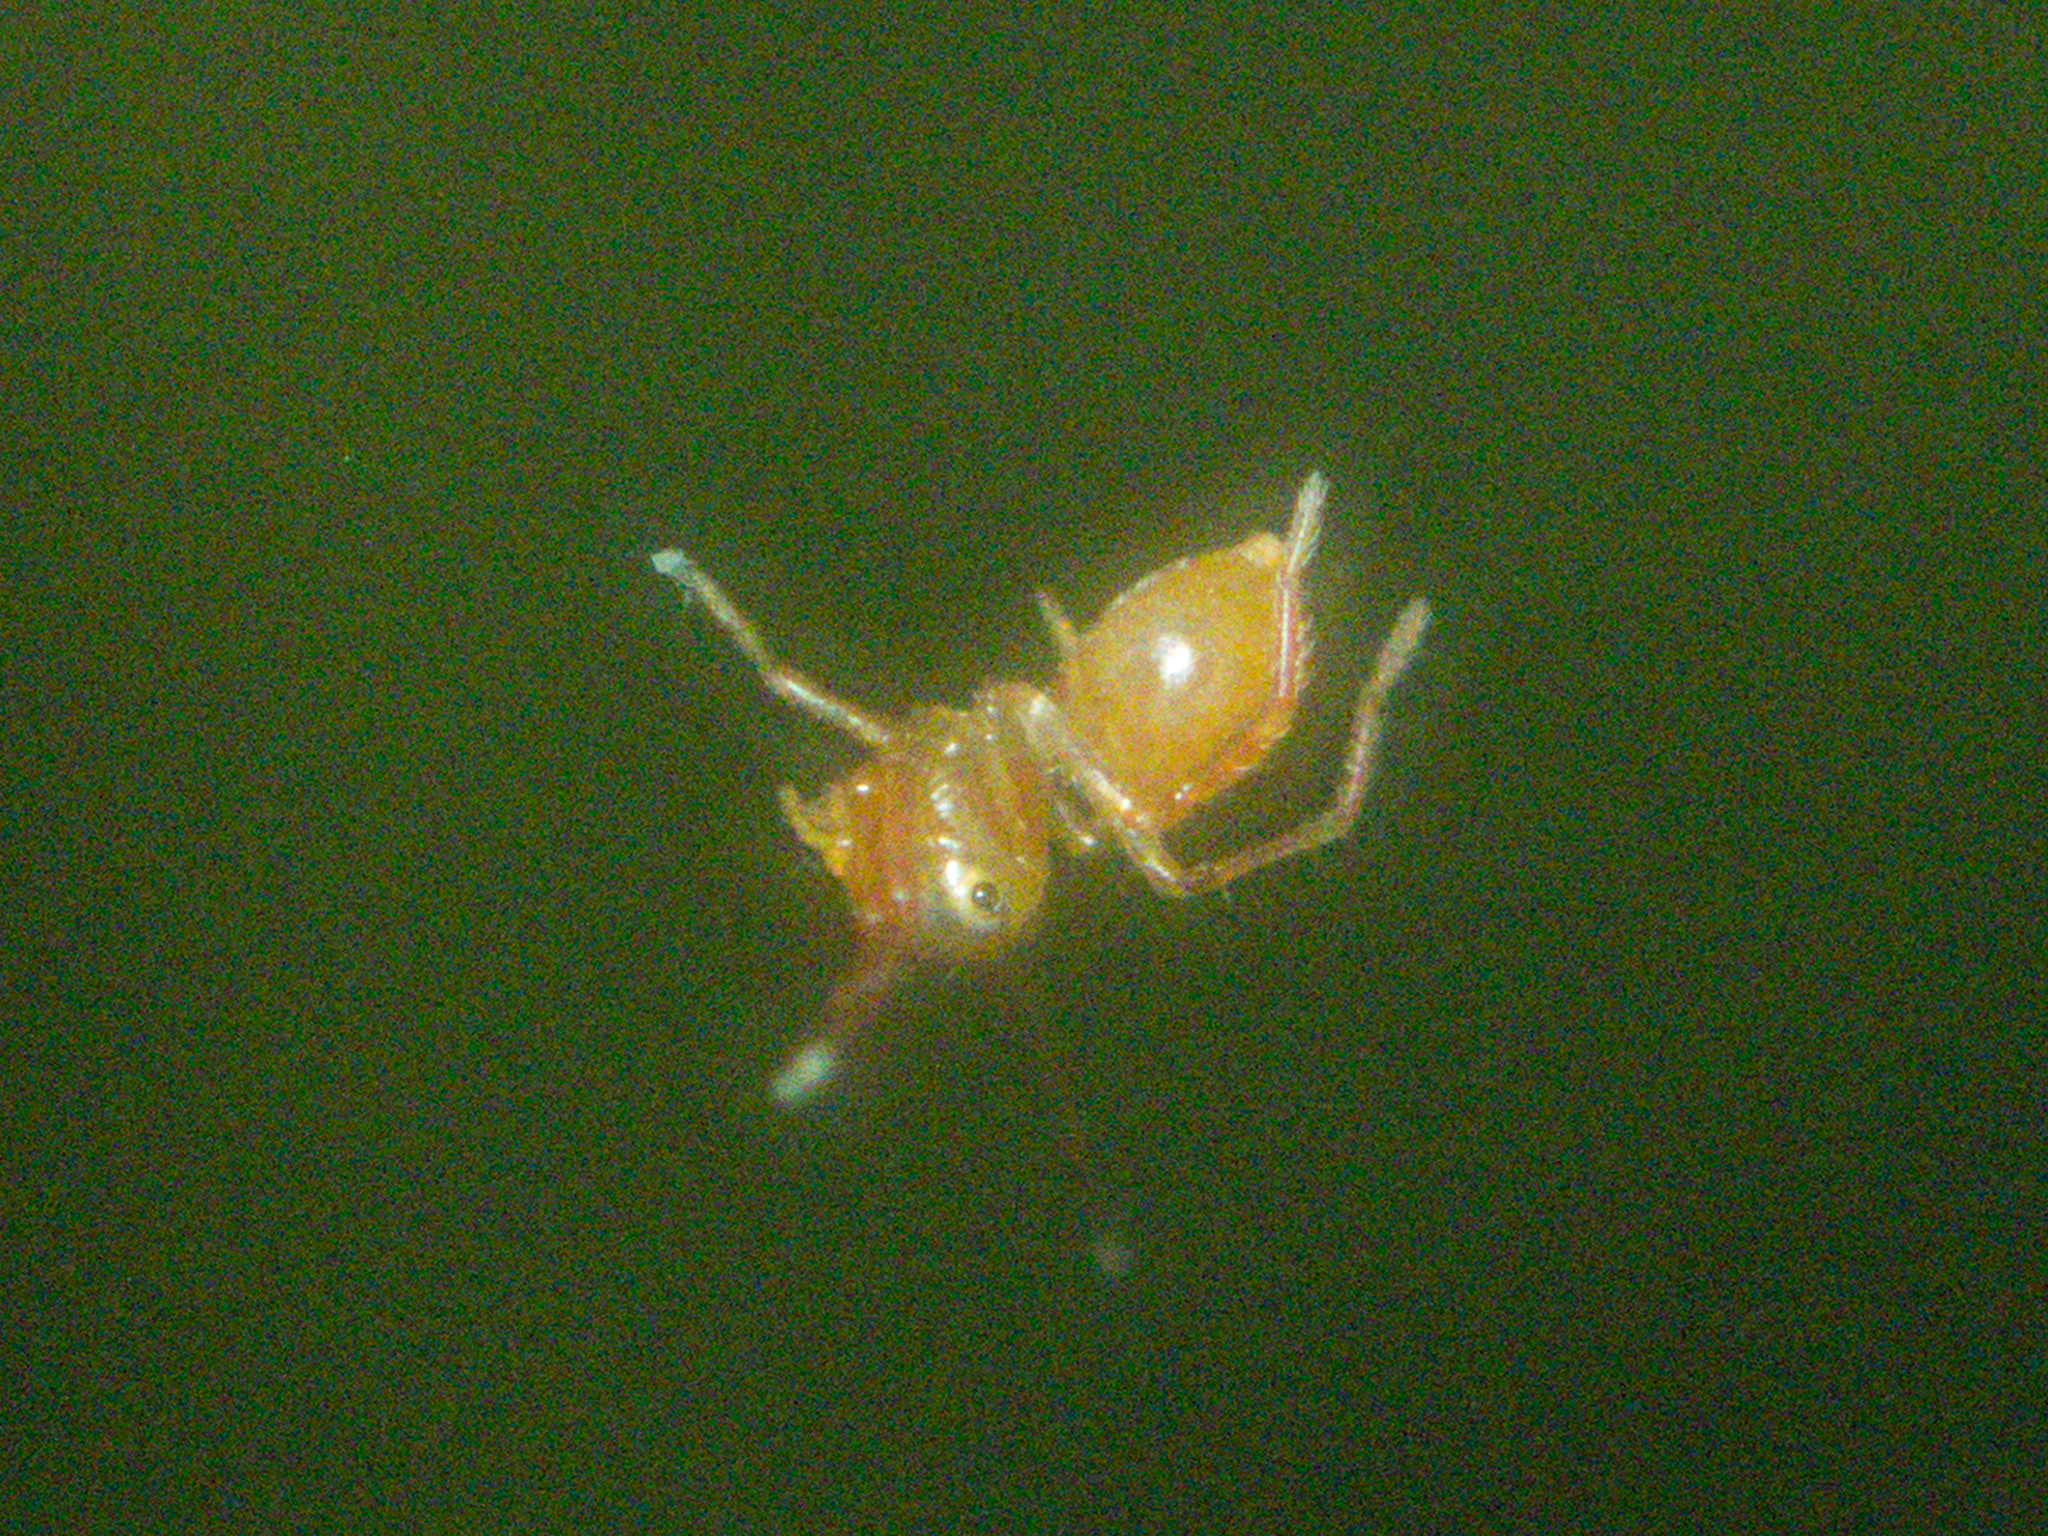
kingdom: Animalia
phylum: Arthropoda
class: Arachnida
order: Araneae
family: Thomisidae
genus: Amyciaea
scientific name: Amyciaea forticeps
